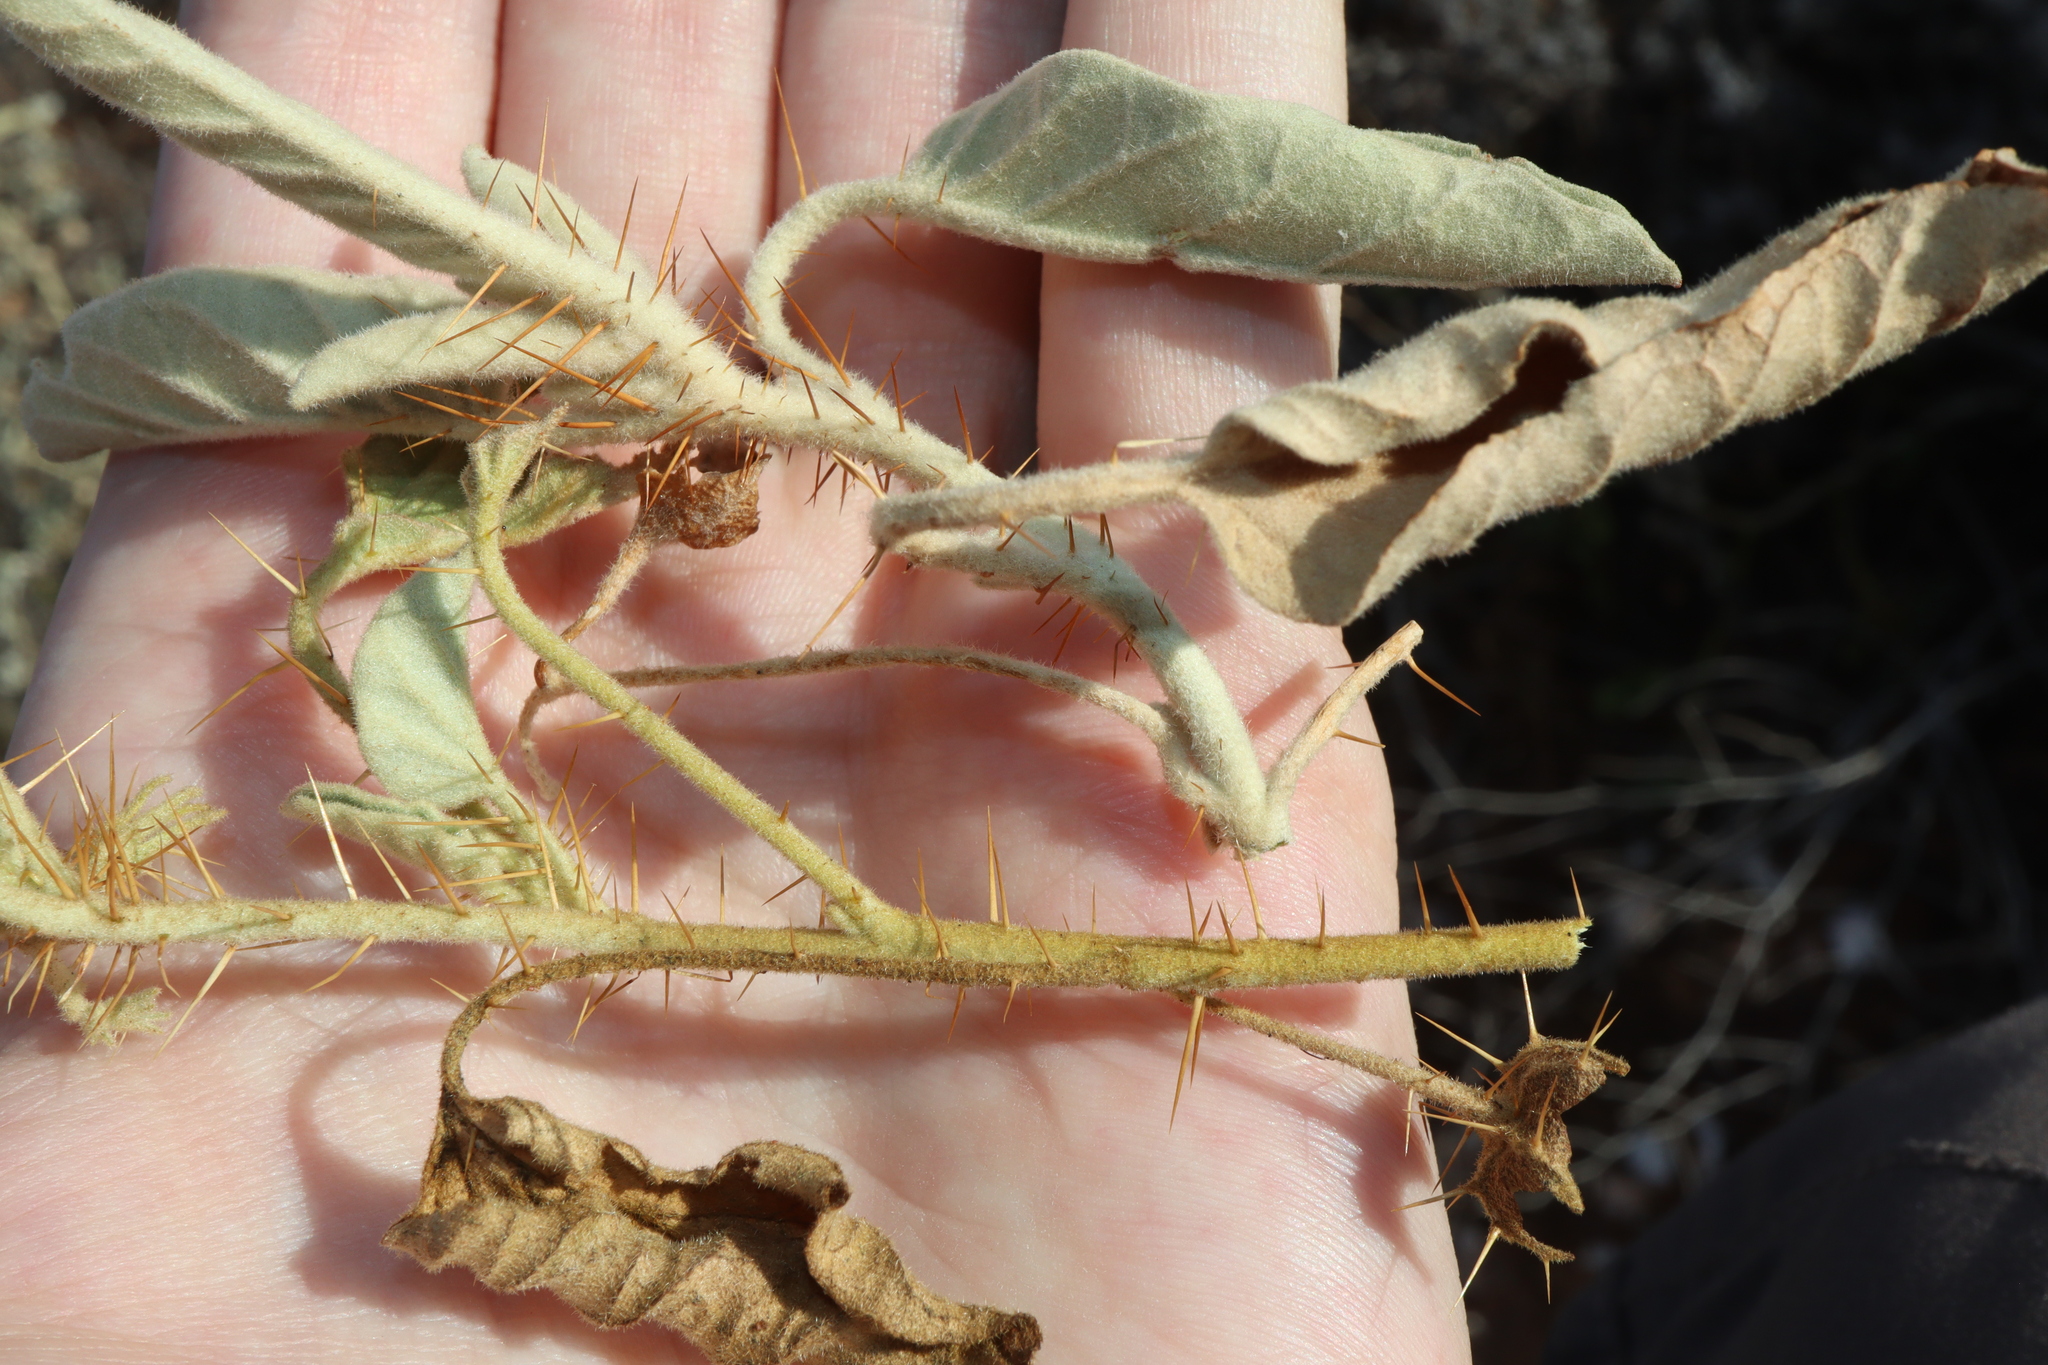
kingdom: Plantae
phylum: Tracheophyta
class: Magnoliopsida
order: Solanales
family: Solanaceae
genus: Solanum
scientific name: Solanum ellipticum
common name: Potato-bush
